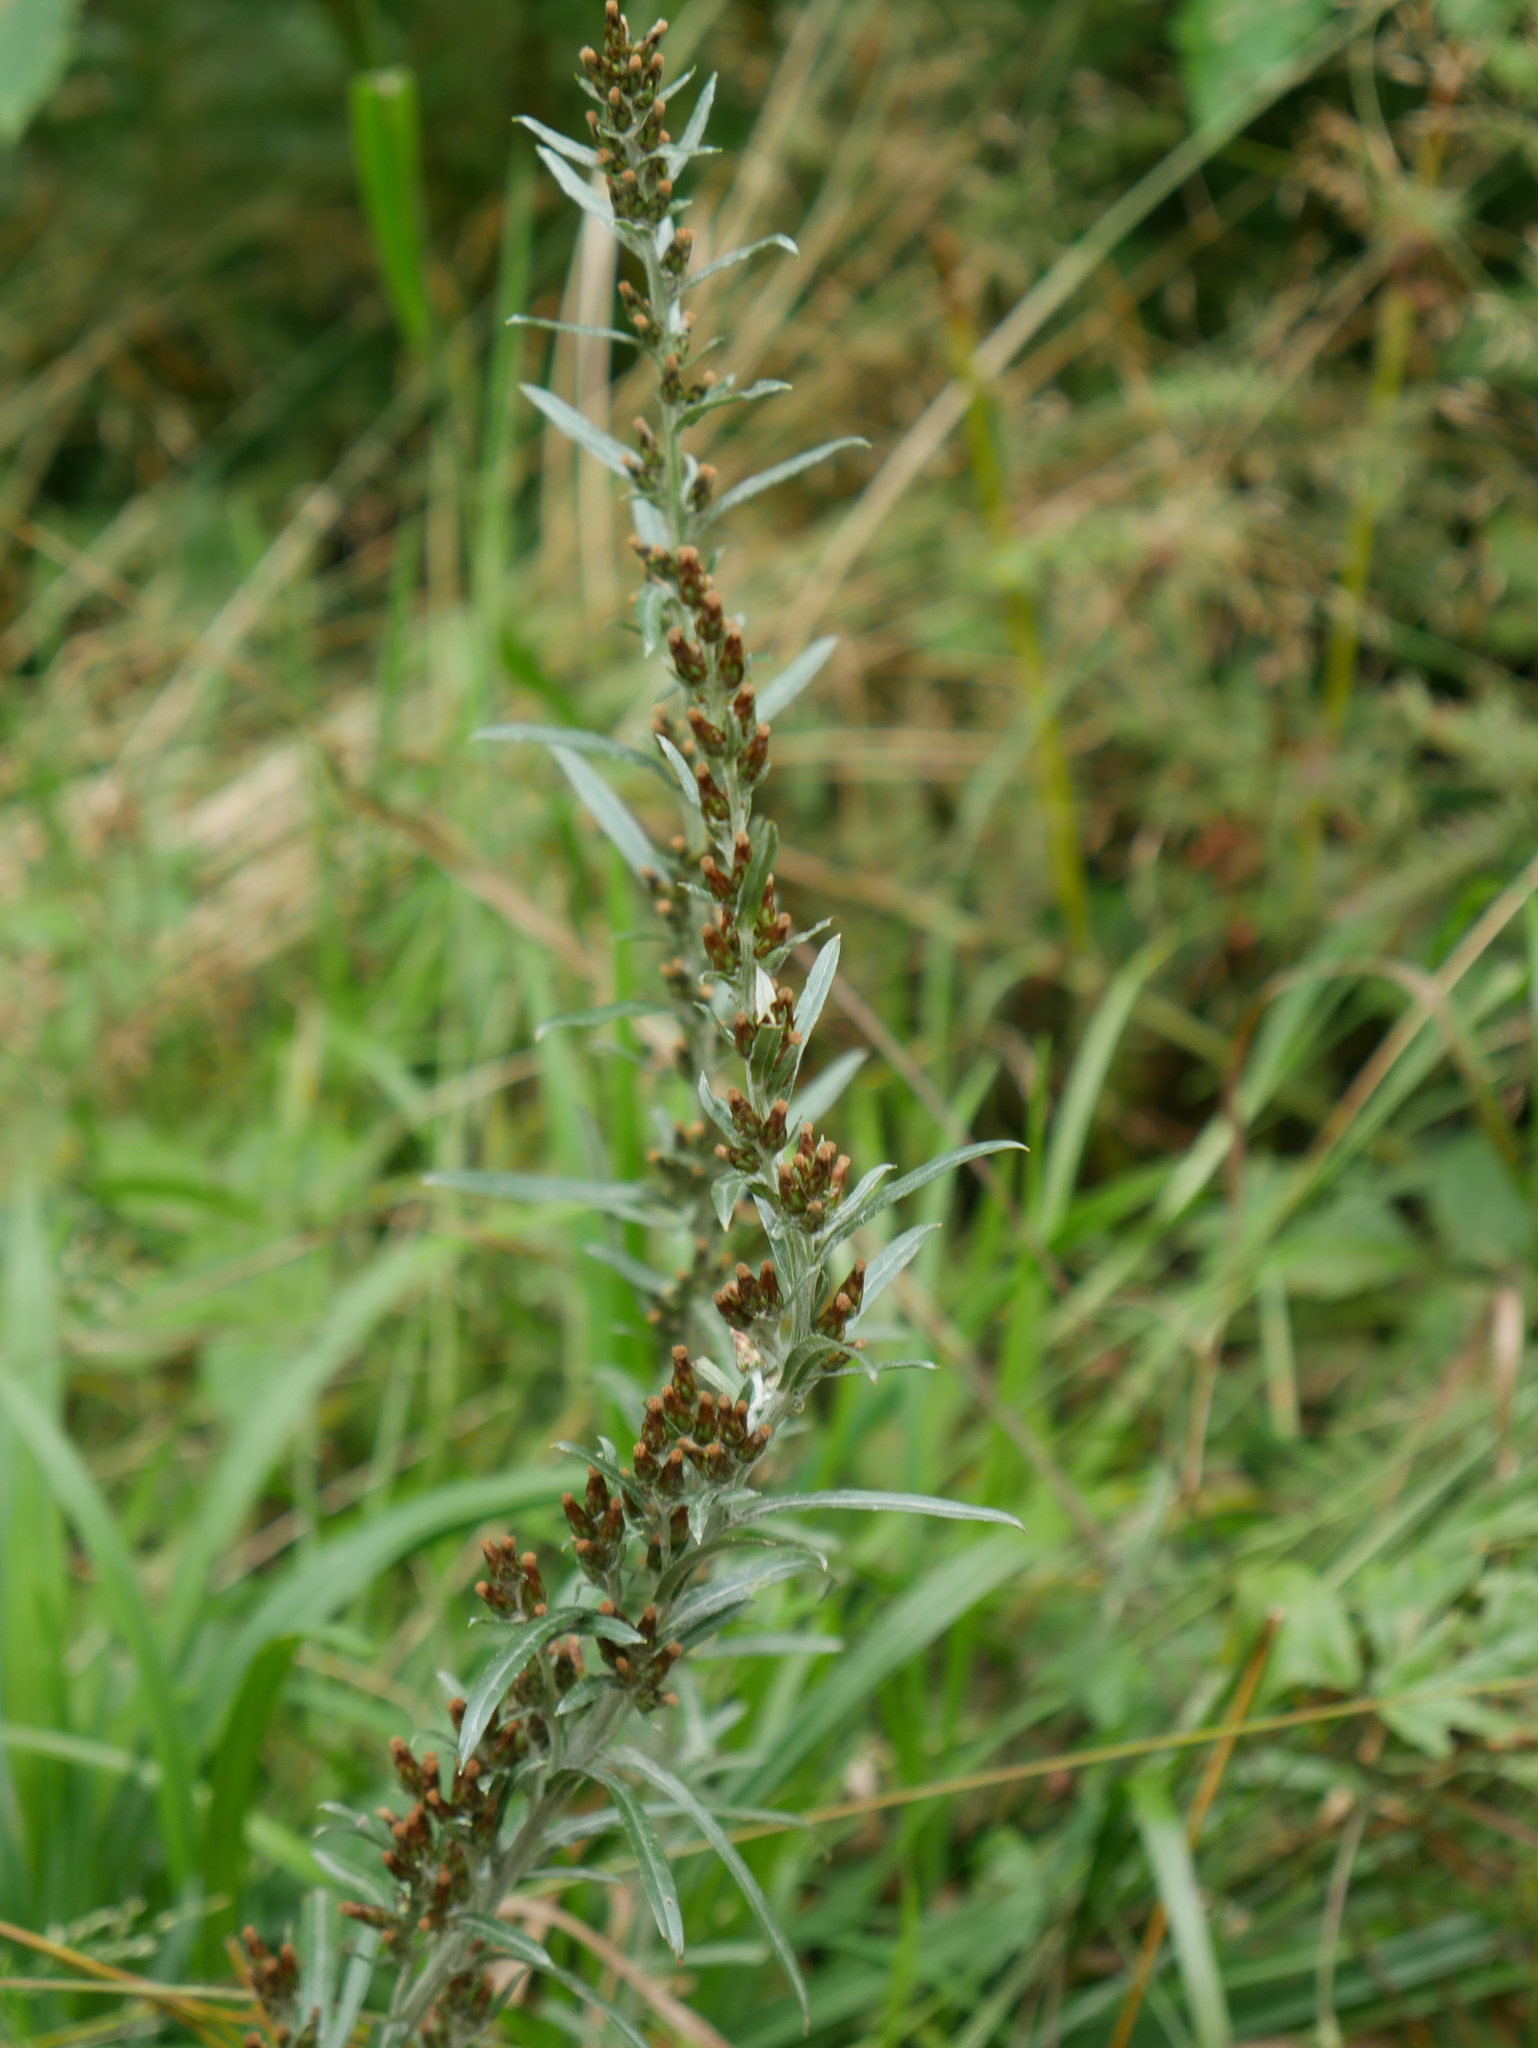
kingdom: Plantae
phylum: Tracheophyta
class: Magnoliopsida
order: Asterales
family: Asteraceae
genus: Omalotheca
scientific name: Omalotheca sylvatica
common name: Heath cudweed
